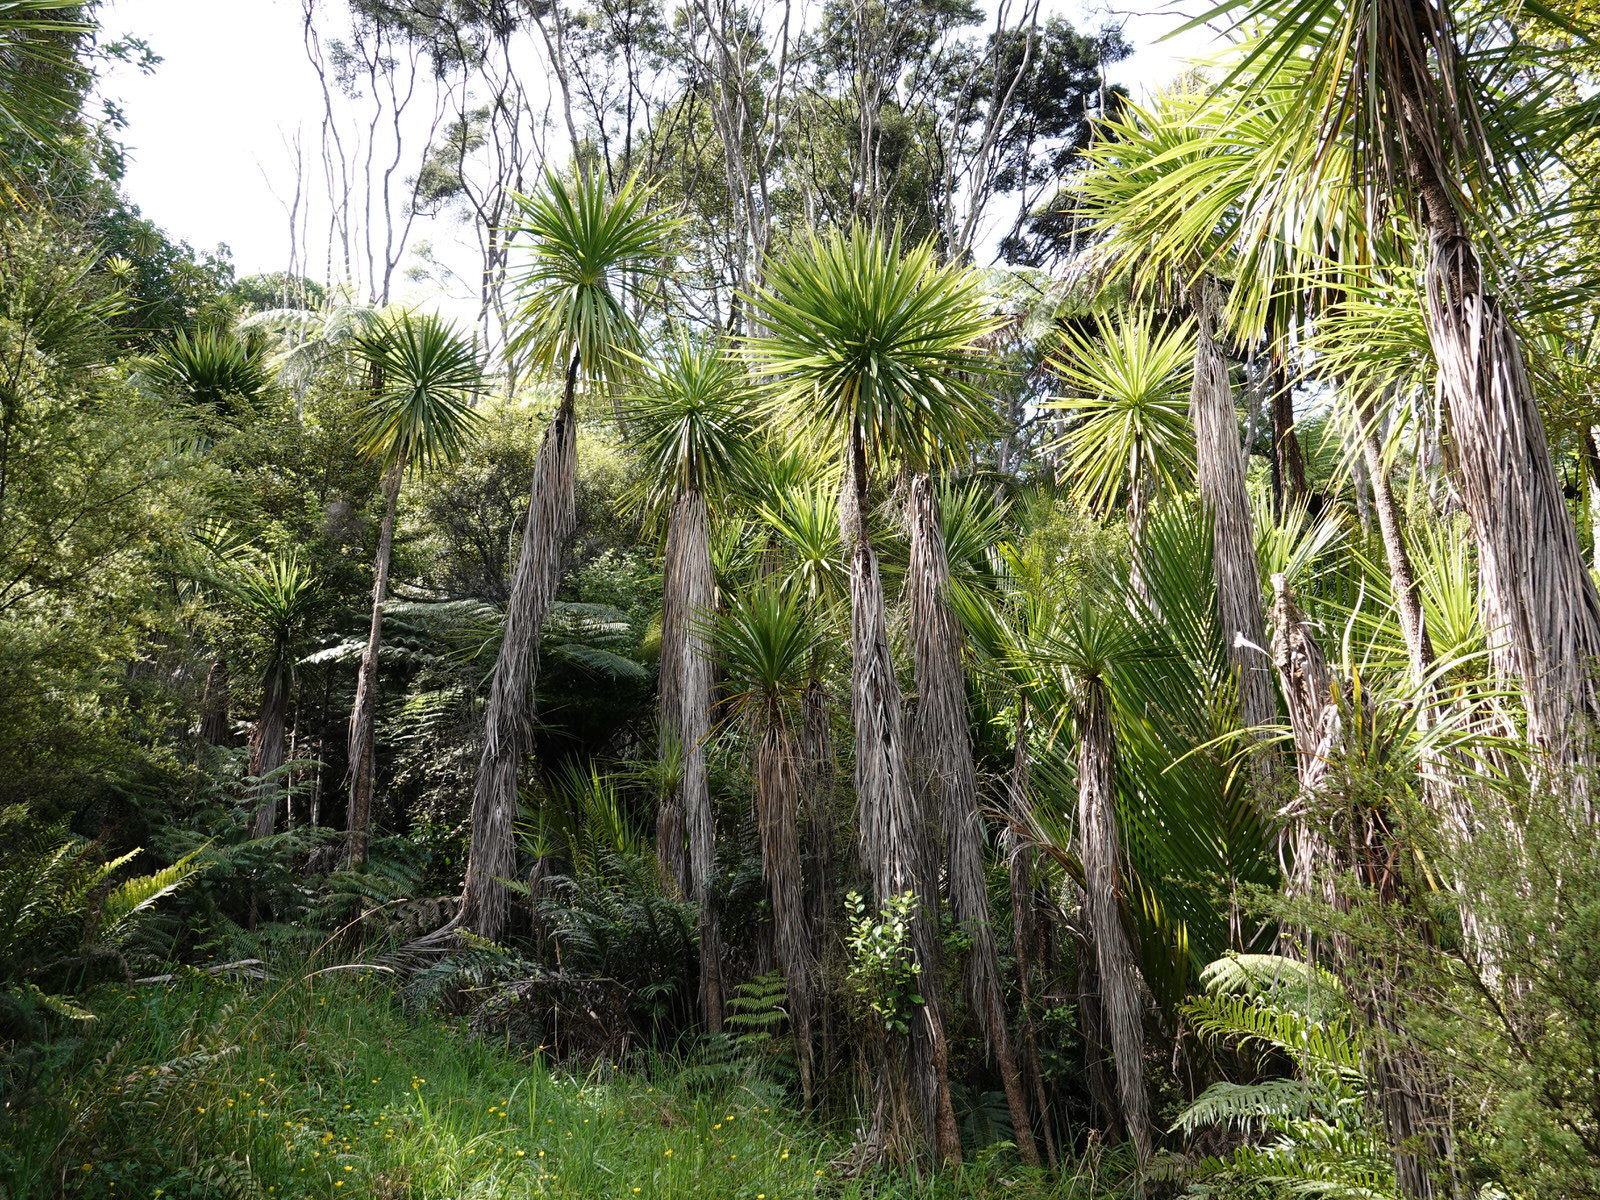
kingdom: Plantae
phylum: Tracheophyta
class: Liliopsida
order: Asparagales
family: Asparagaceae
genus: Cordyline
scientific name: Cordyline australis
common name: Cabbage-palm
